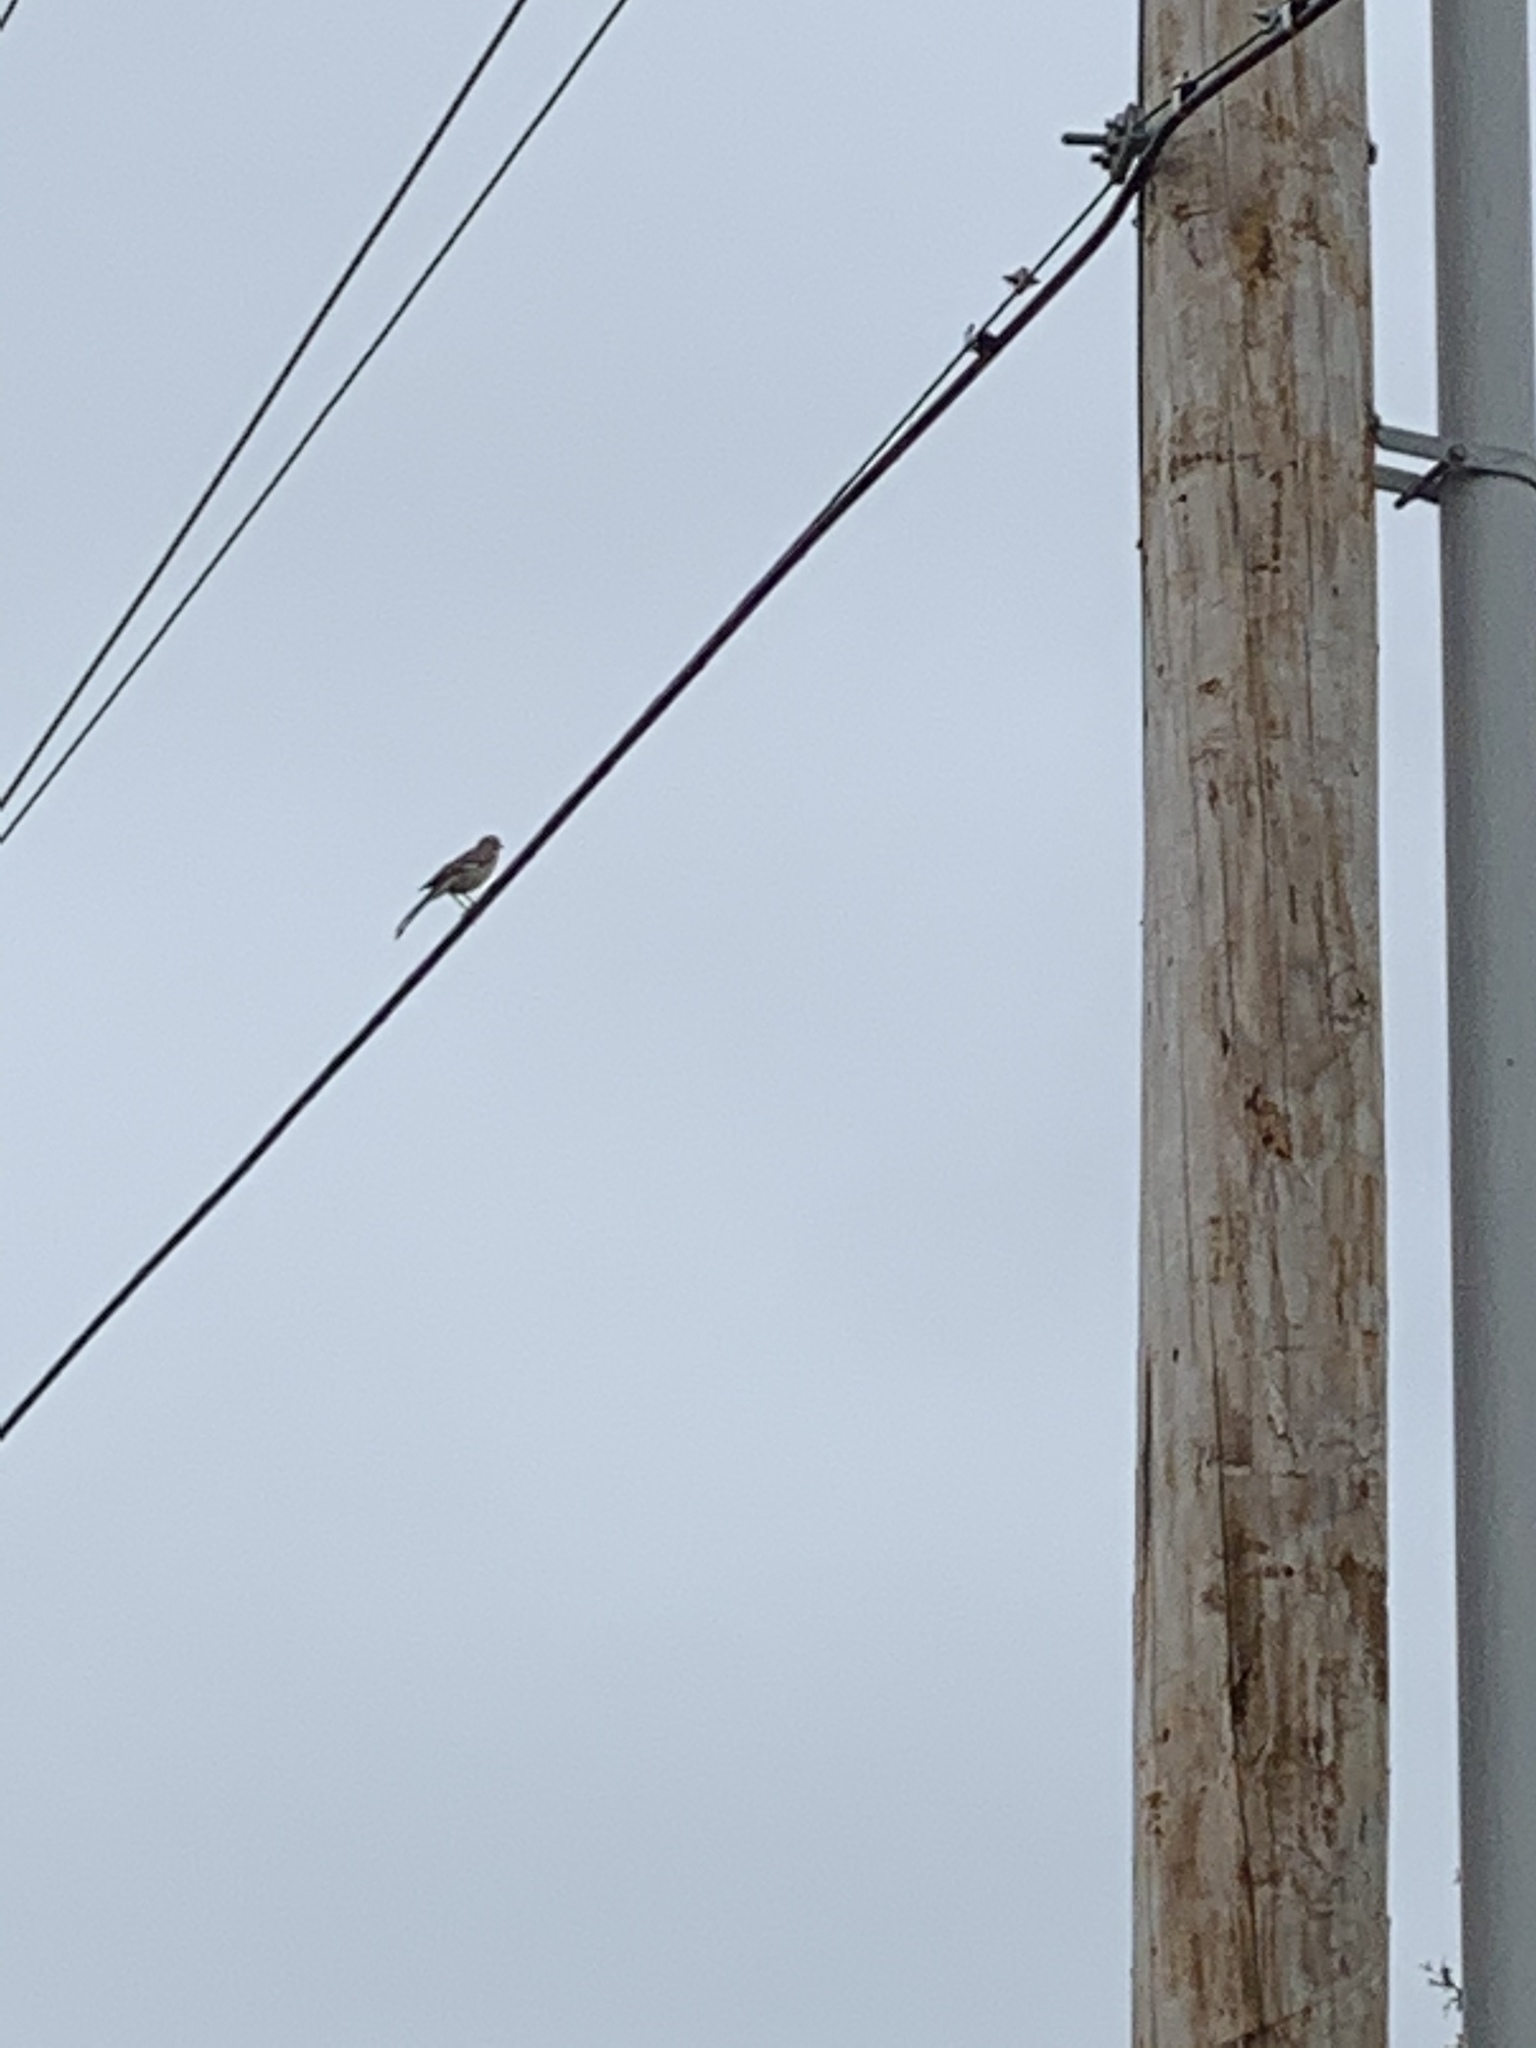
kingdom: Animalia
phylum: Chordata
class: Aves
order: Passeriformes
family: Mimidae
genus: Mimus
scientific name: Mimus polyglottos
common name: Northern mockingbird
